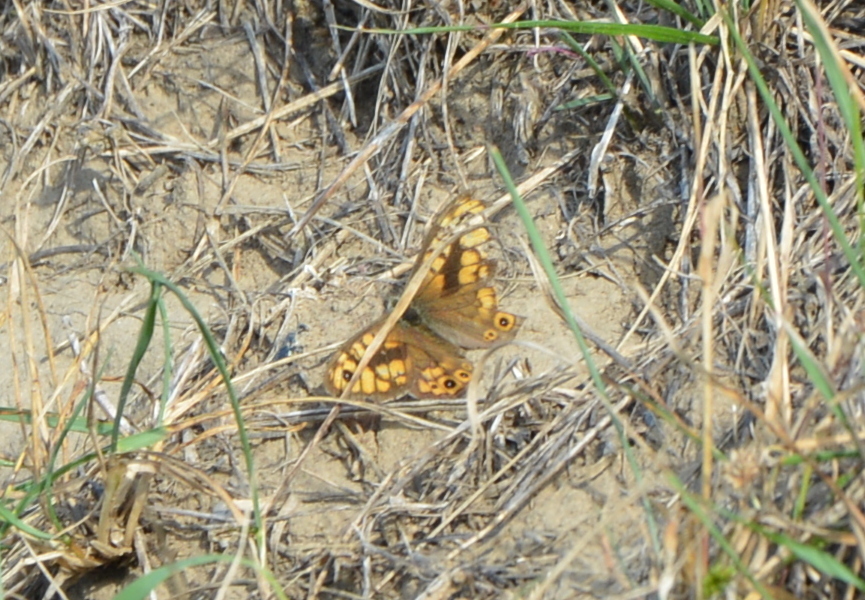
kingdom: Animalia
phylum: Arthropoda
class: Insecta
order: Lepidoptera
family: Nymphalidae
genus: Pararge
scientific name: Pararge Lasiommata megera
